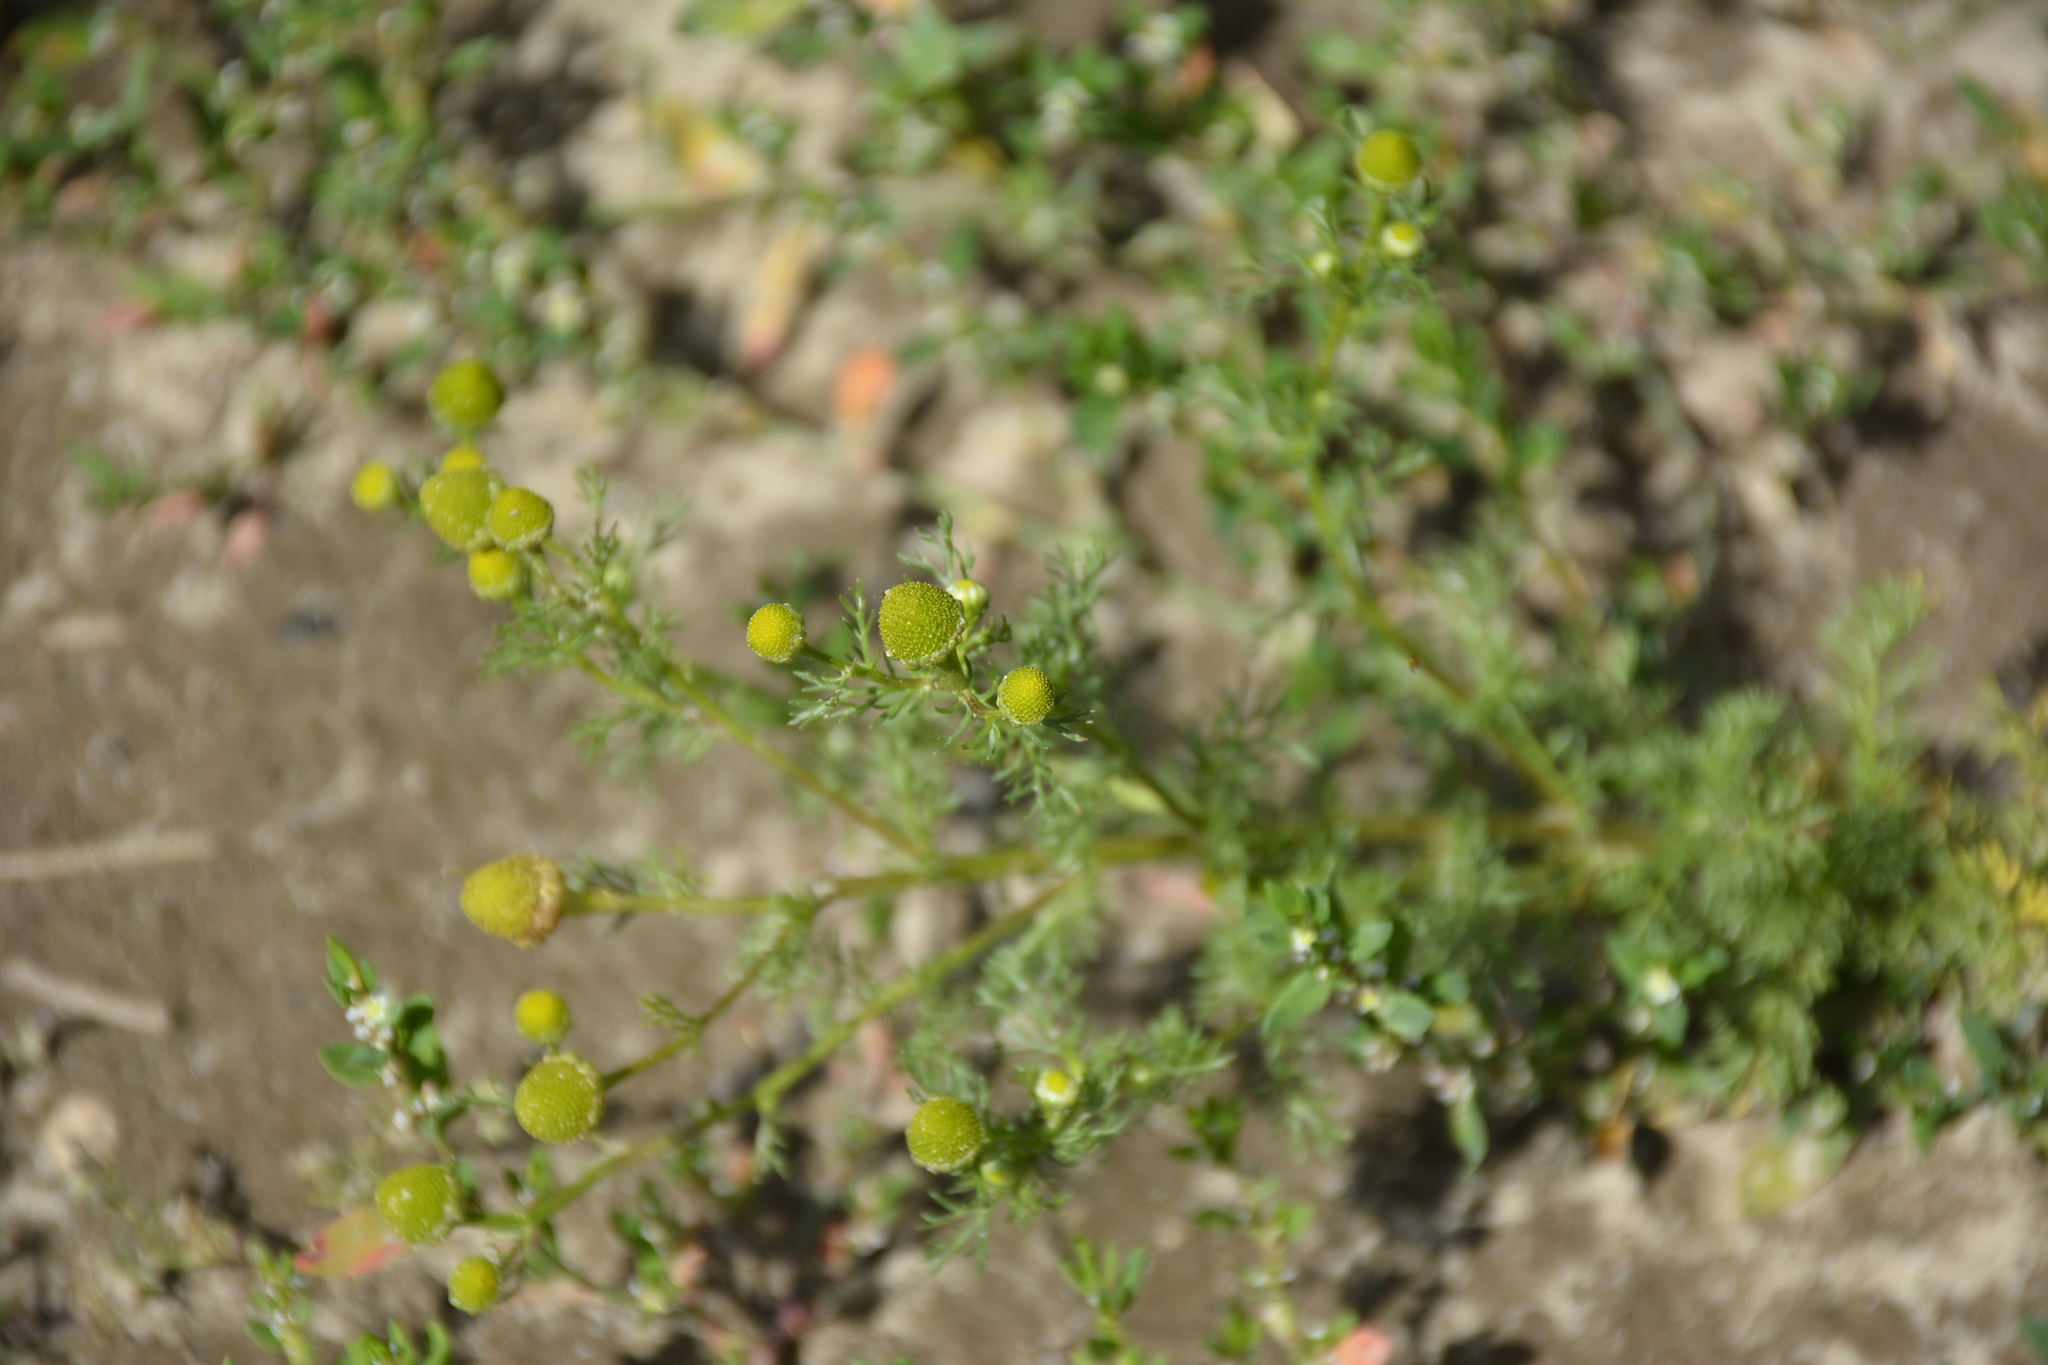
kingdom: Plantae
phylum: Tracheophyta
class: Magnoliopsida
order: Asterales
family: Asteraceae
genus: Matricaria
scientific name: Matricaria discoidea
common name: Disc mayweed
